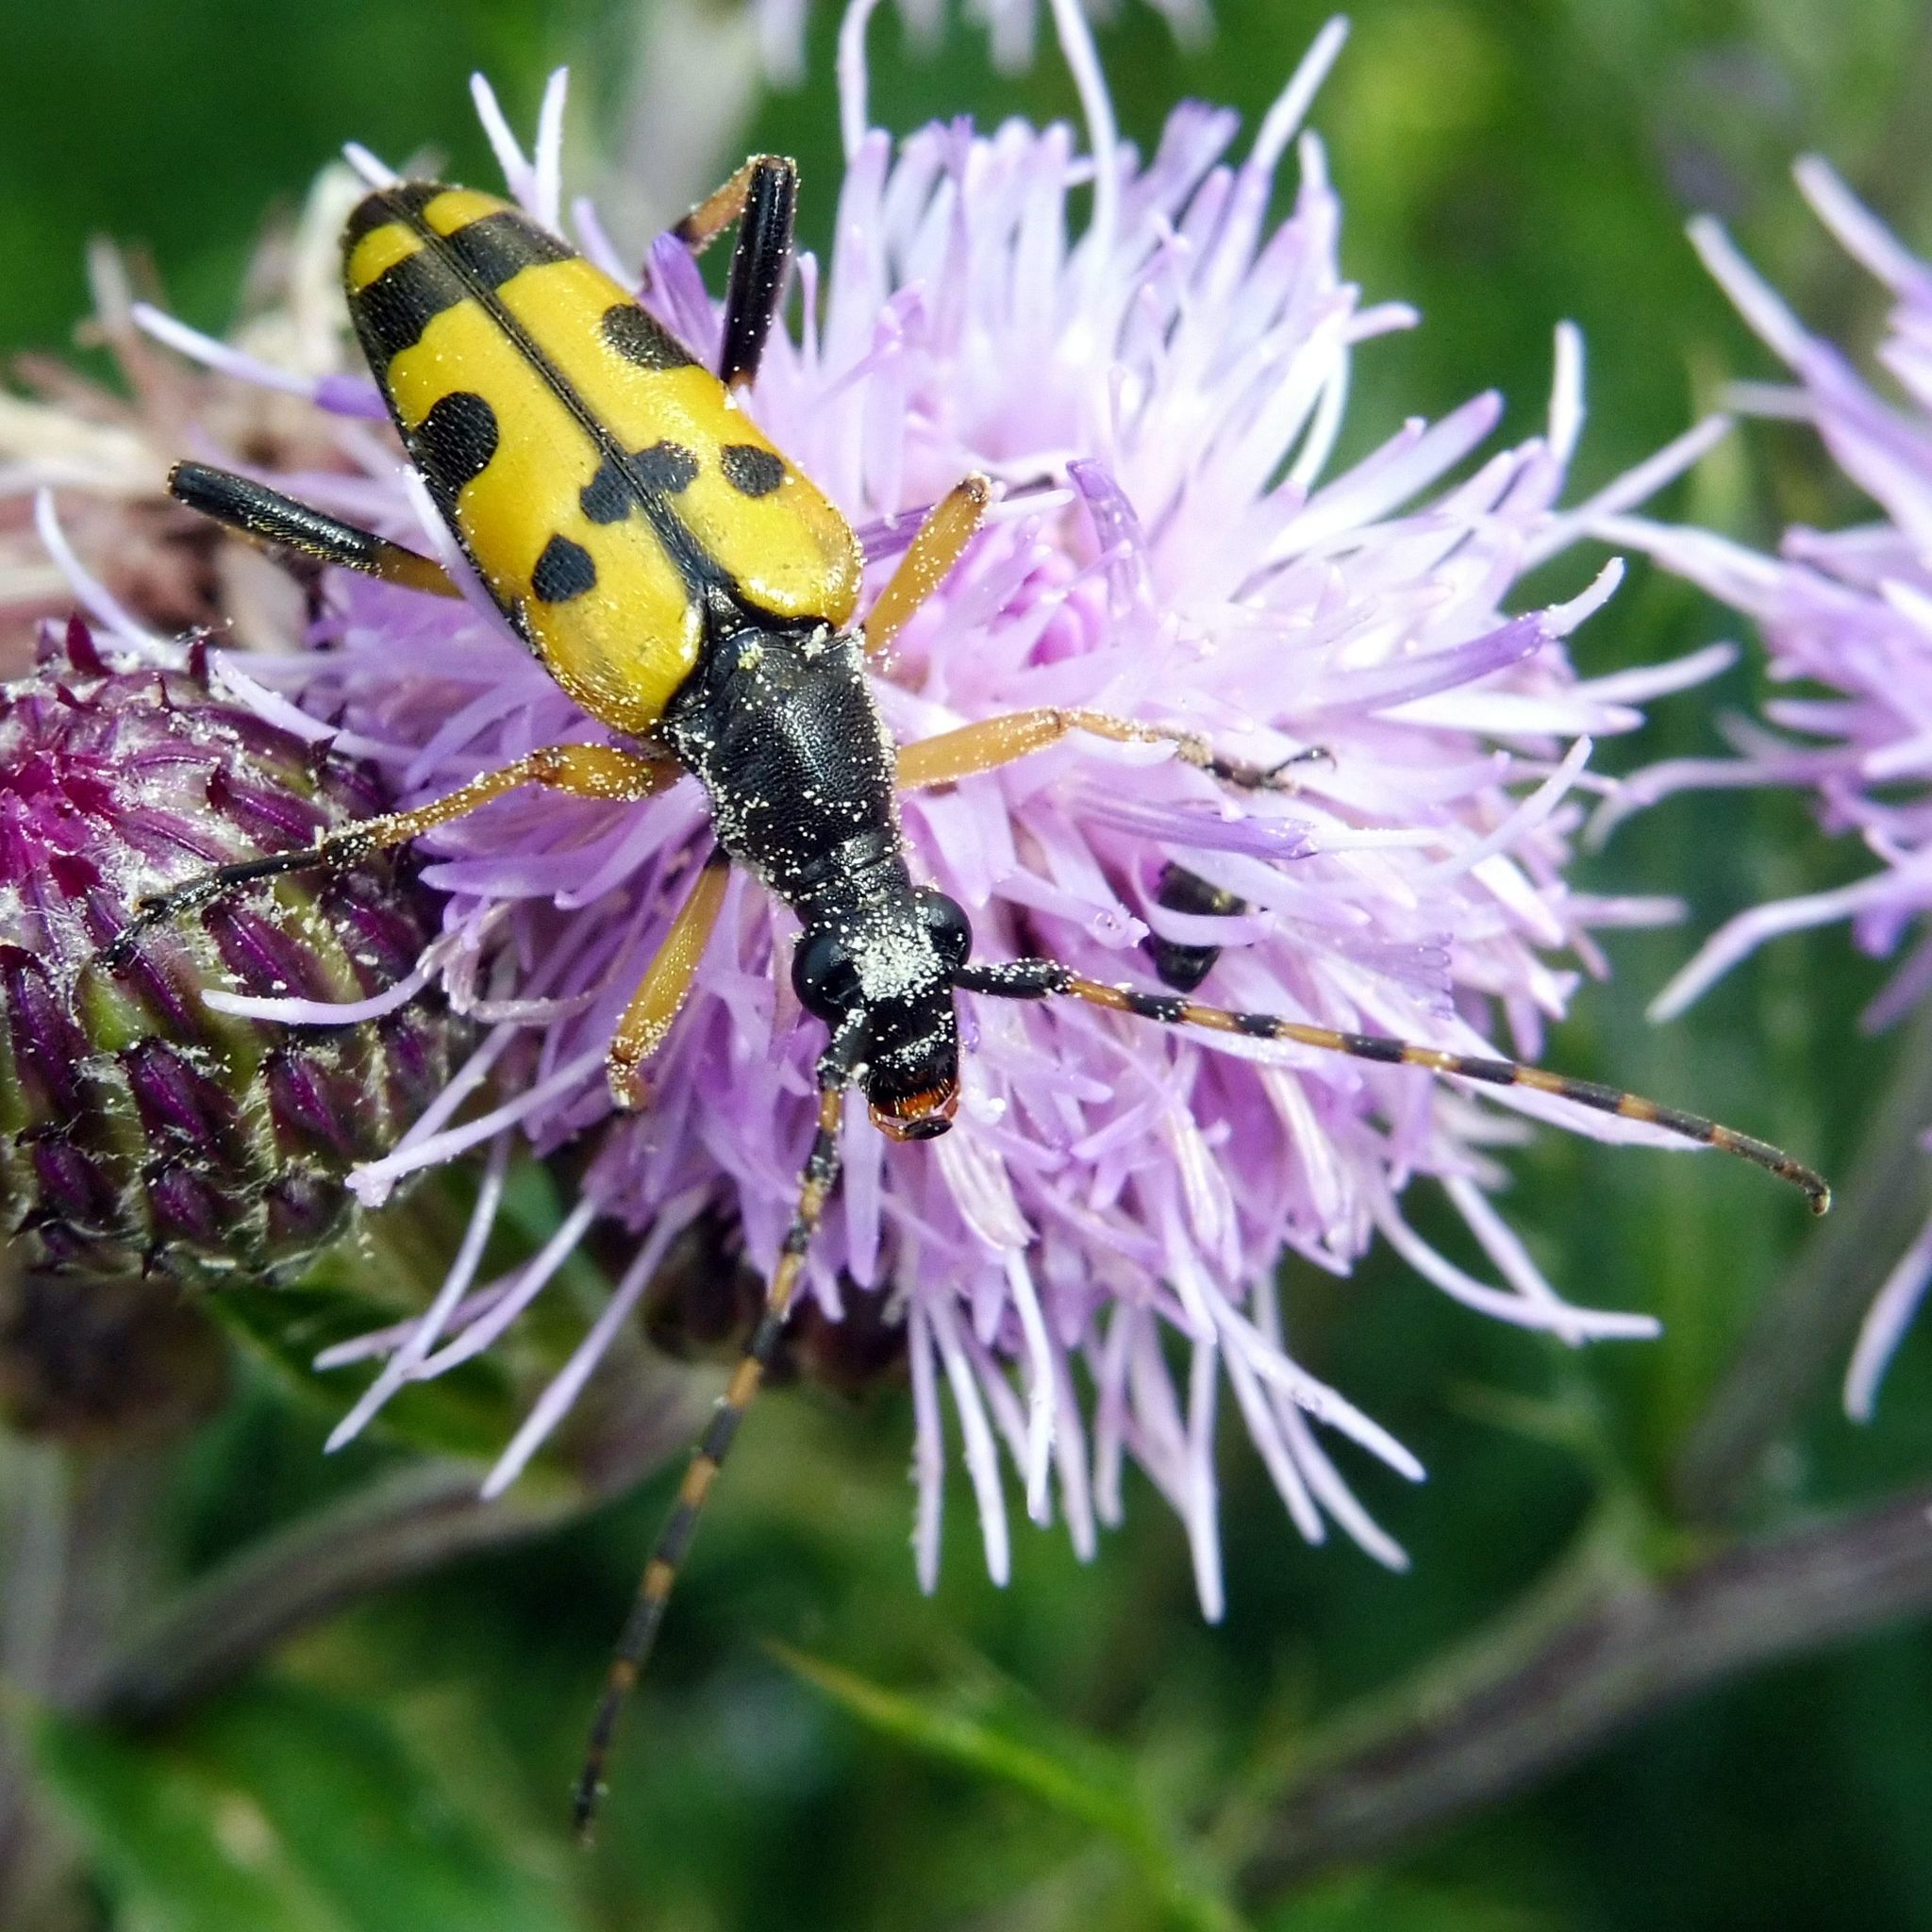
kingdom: Animalia
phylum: Arthropoda
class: Insecta
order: Coleoptera
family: Cerambycidae
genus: Rutpela
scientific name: Rutpela maculata
